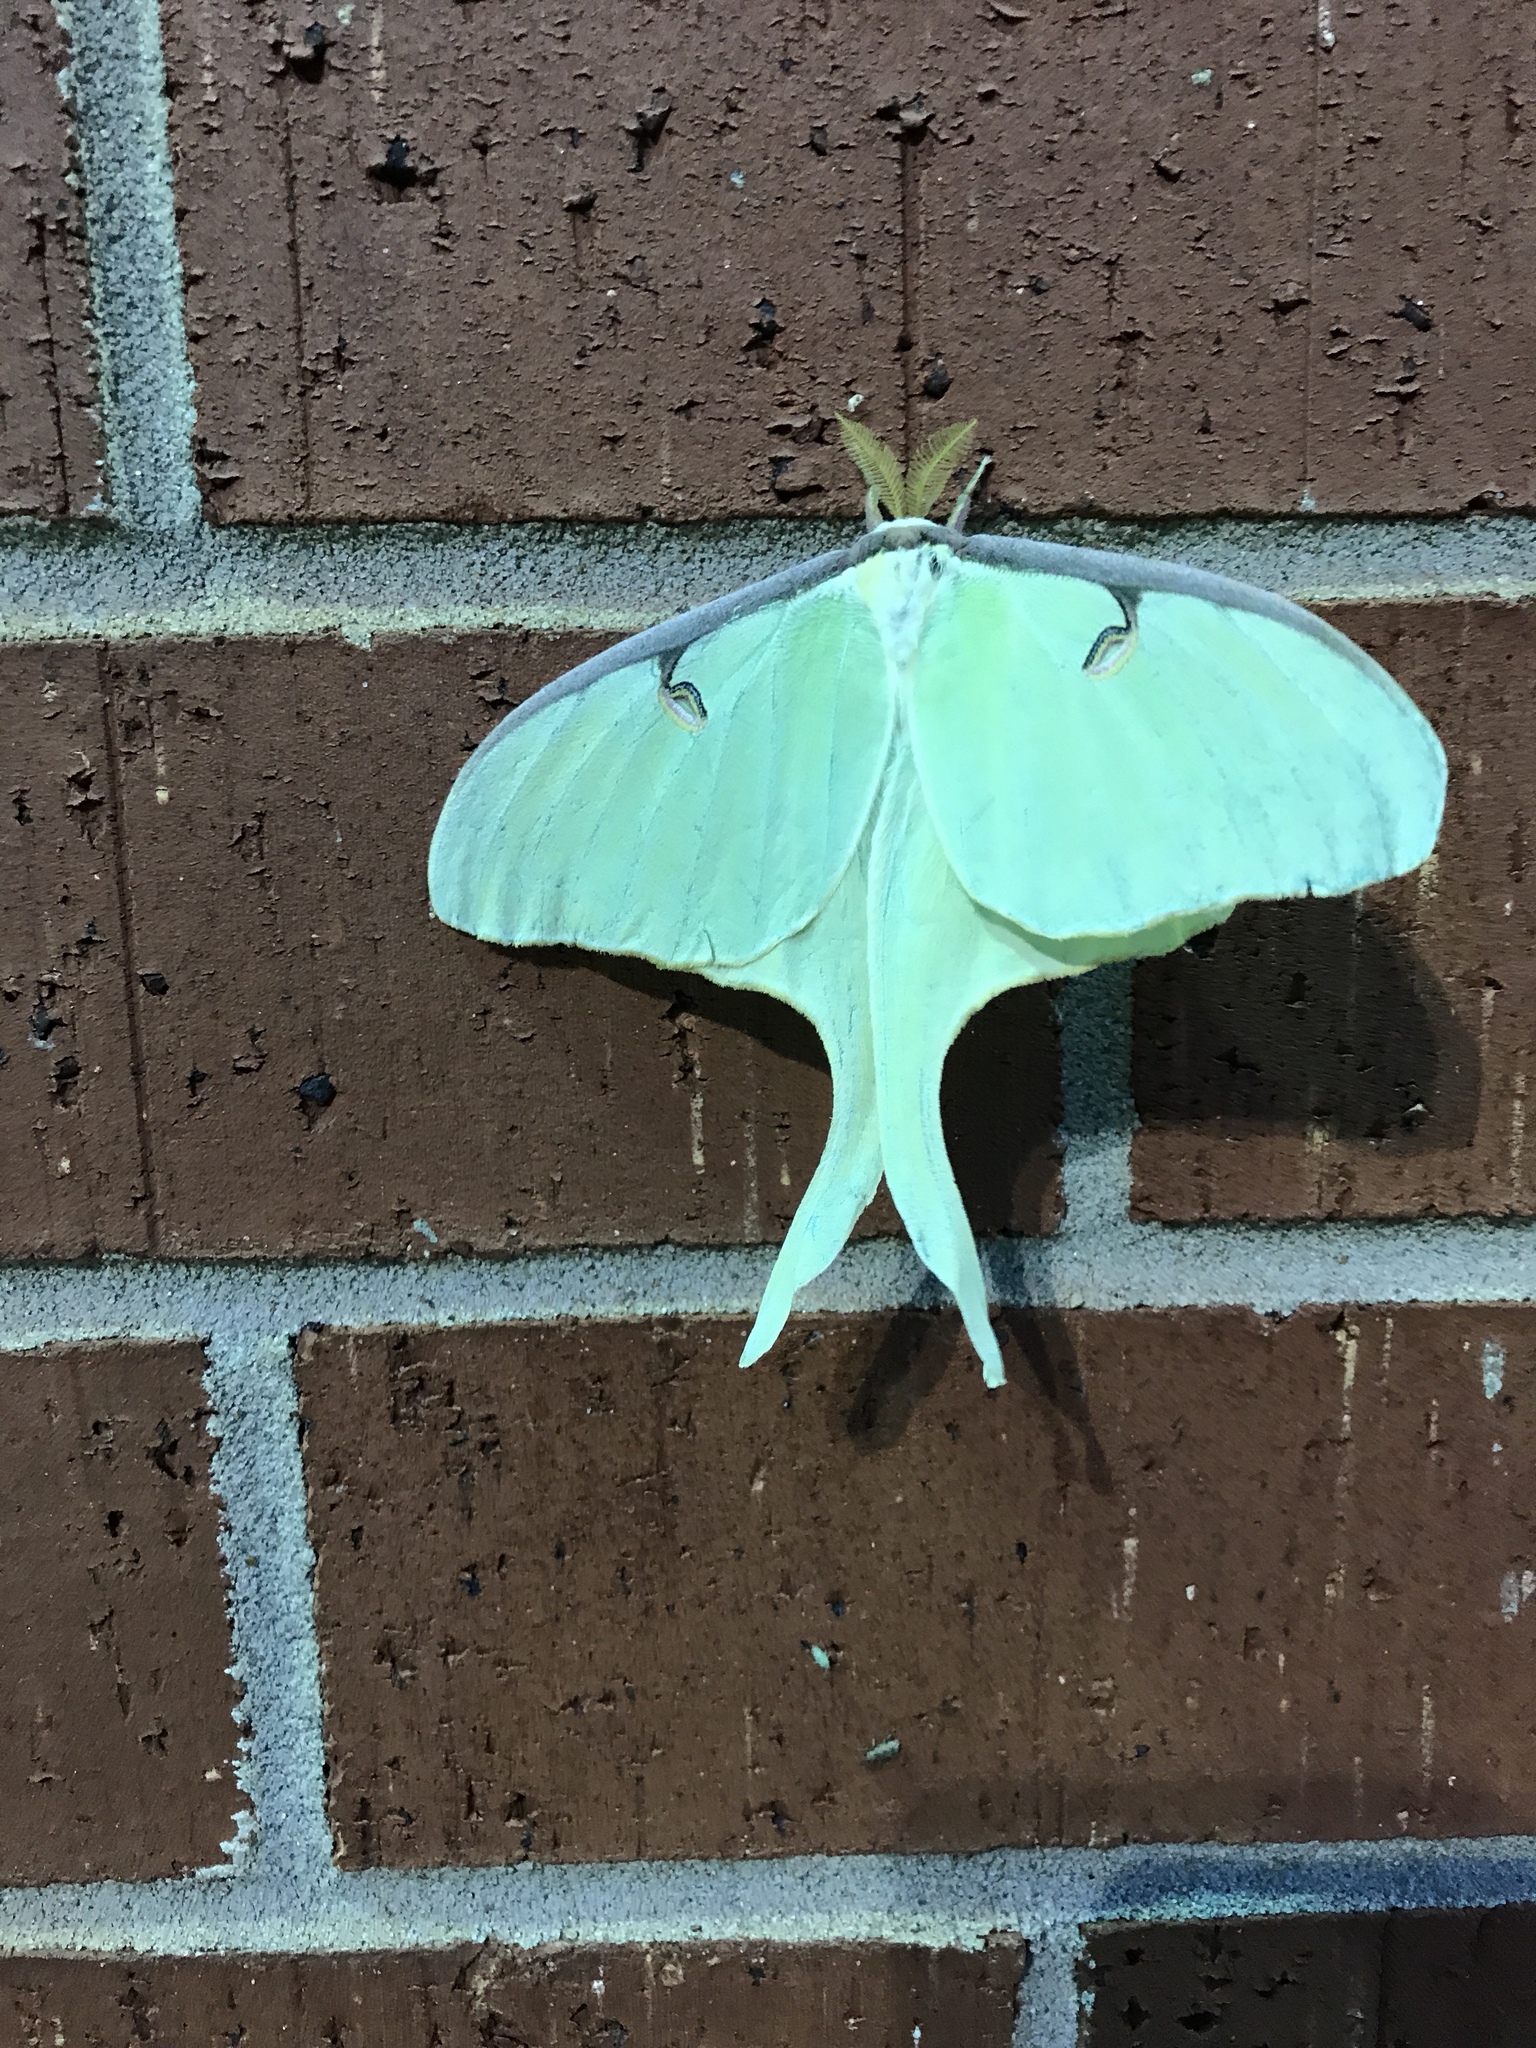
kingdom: Animalia
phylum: Arthropoda
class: Insecta
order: Lepidoptera
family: Saturniidae
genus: Actias
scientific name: Actias luna
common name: Luna moth
